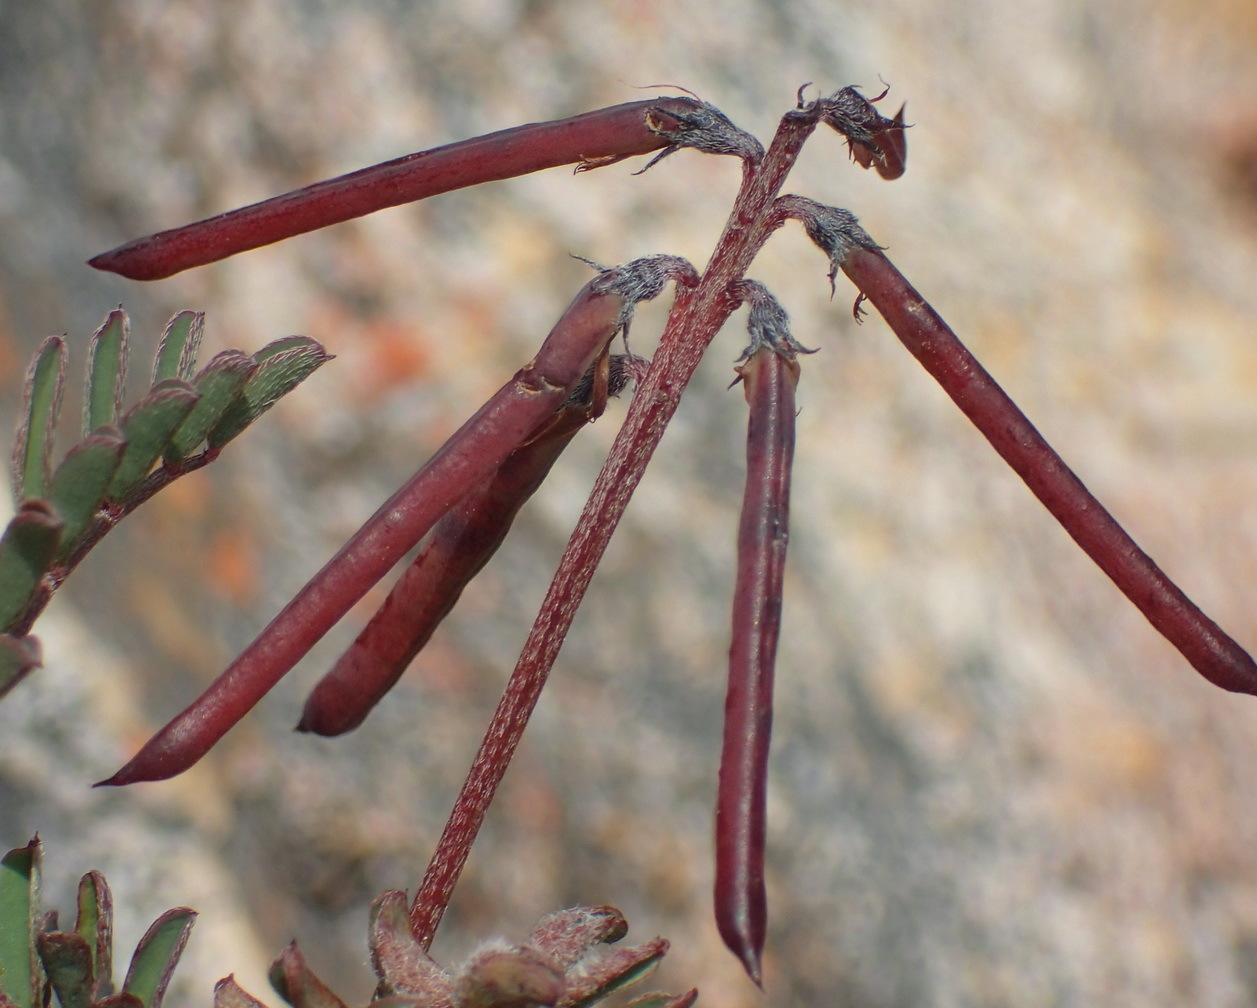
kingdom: Plantae
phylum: Tracheophyta
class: Magnoliopsida
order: Fabales
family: Fabaceae
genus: Indigofera
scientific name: Indigofera declinata
